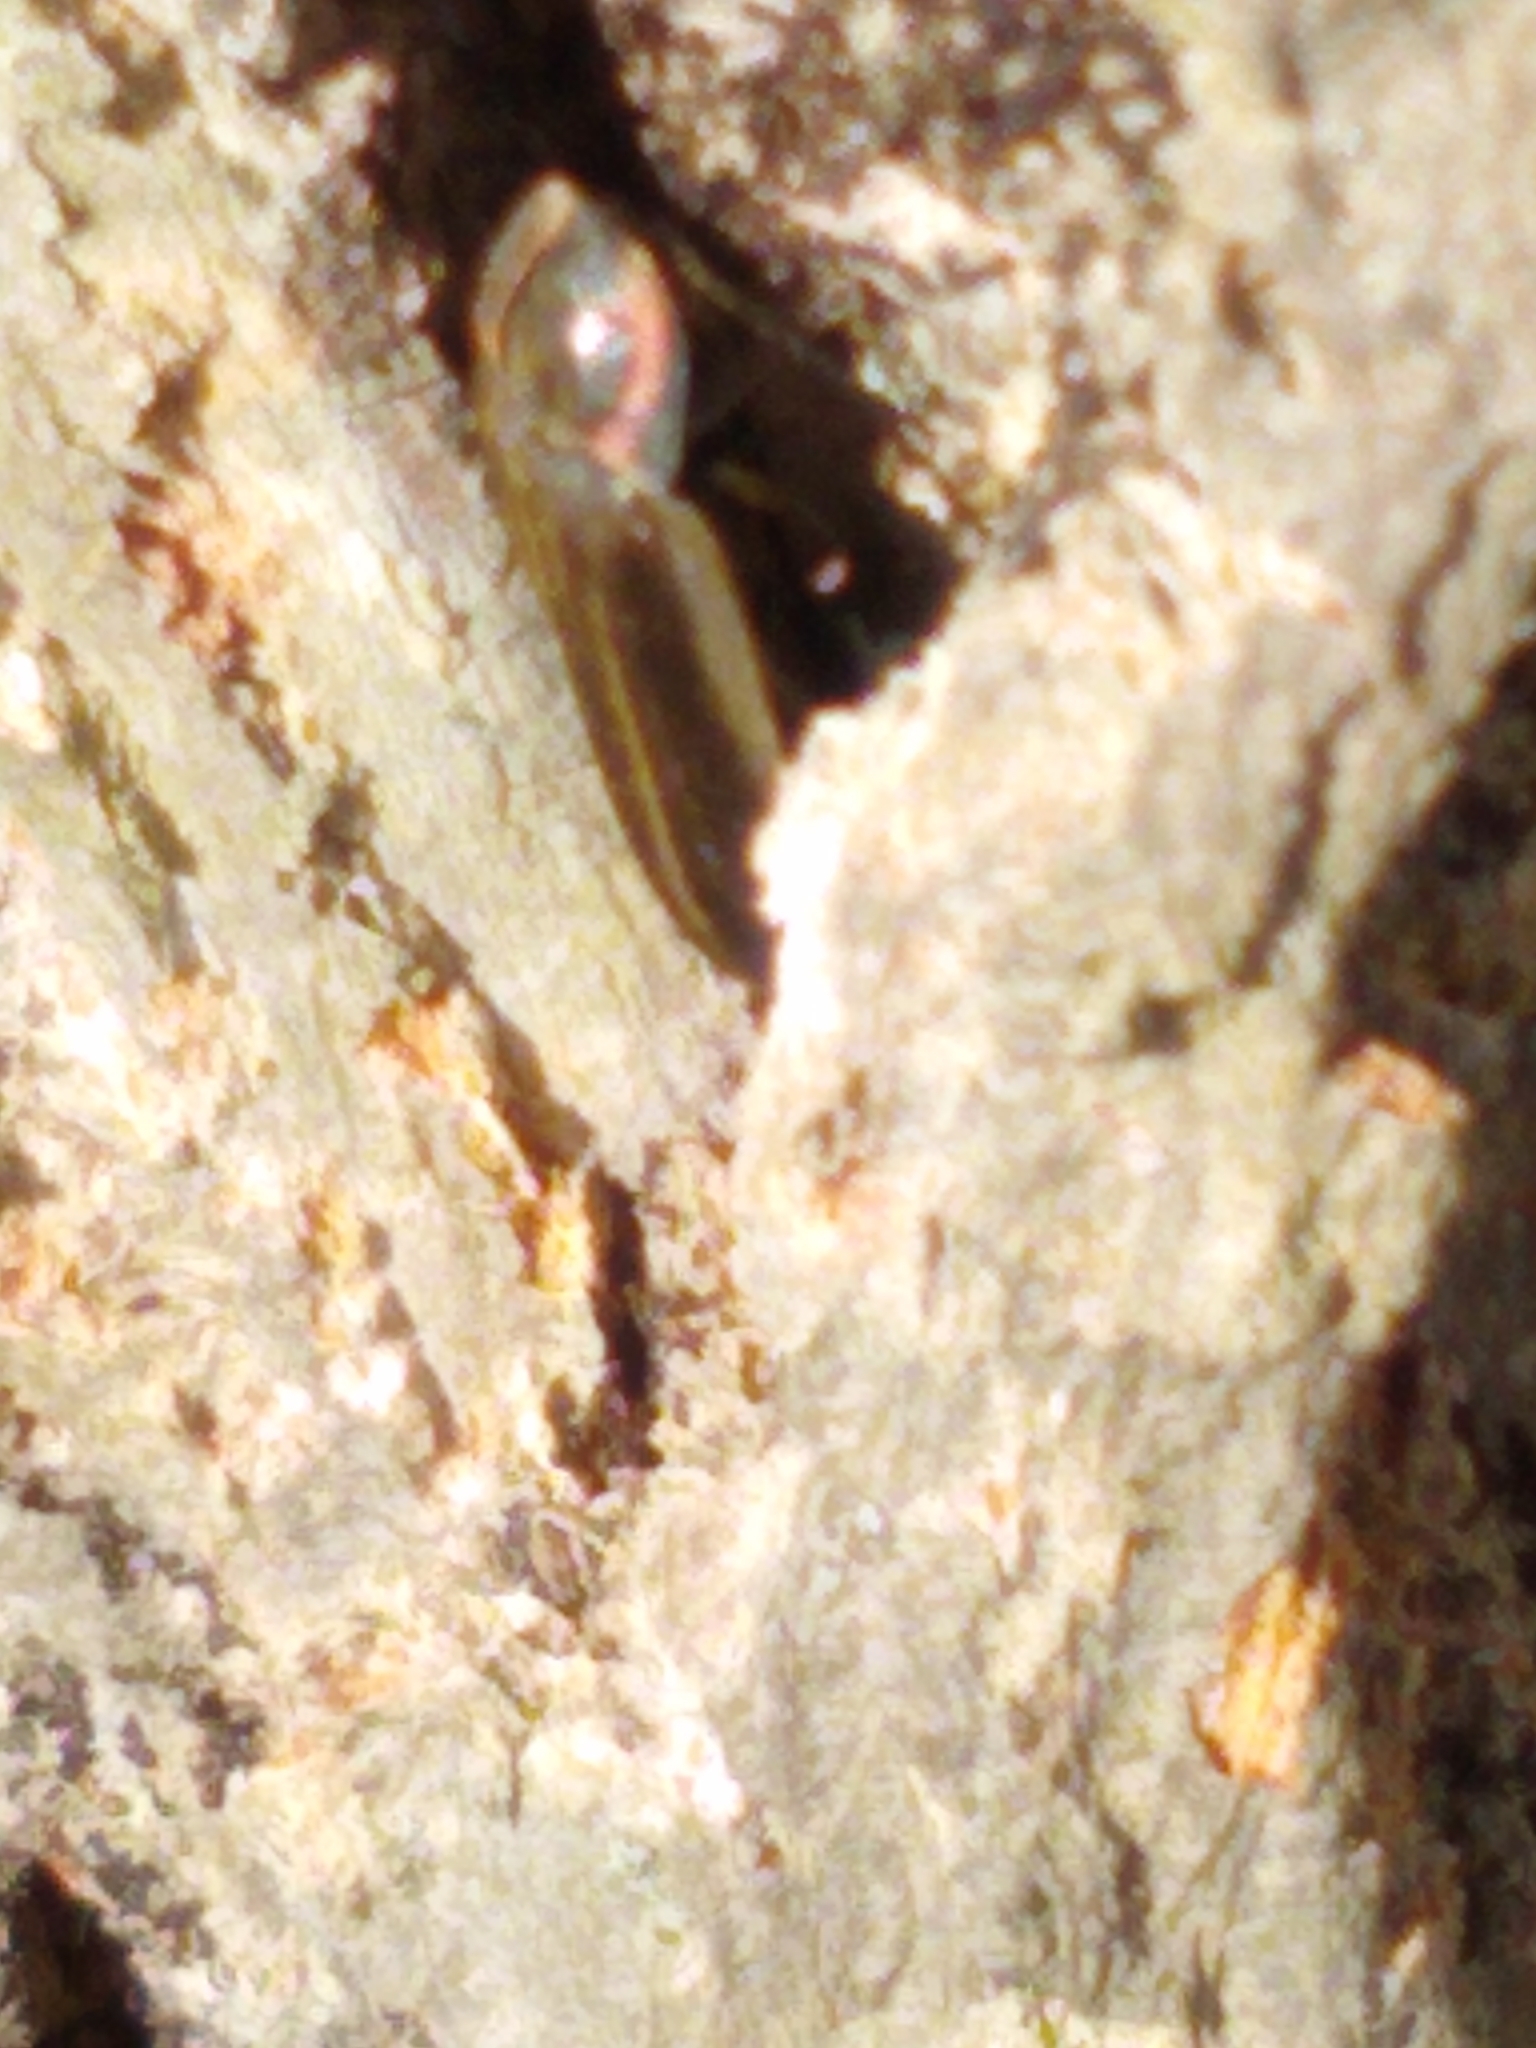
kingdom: Animalia
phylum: Arthropoda
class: Insecta
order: Coleoptera
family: Lampyridae
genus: Photinus
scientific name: Photinus corrusca
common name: Winter firefly
